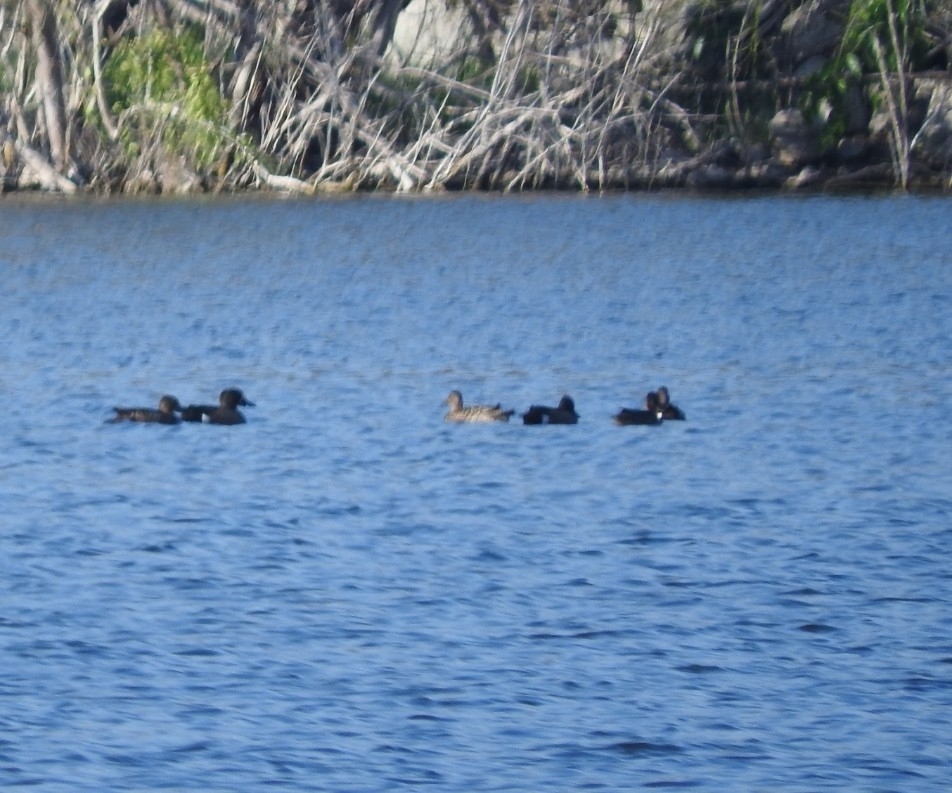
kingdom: Animalia
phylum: Chordata
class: Aves
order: Anseriformes
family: Anatidae
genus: Spatula
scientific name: Spatula discors
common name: Blue-winged teal
